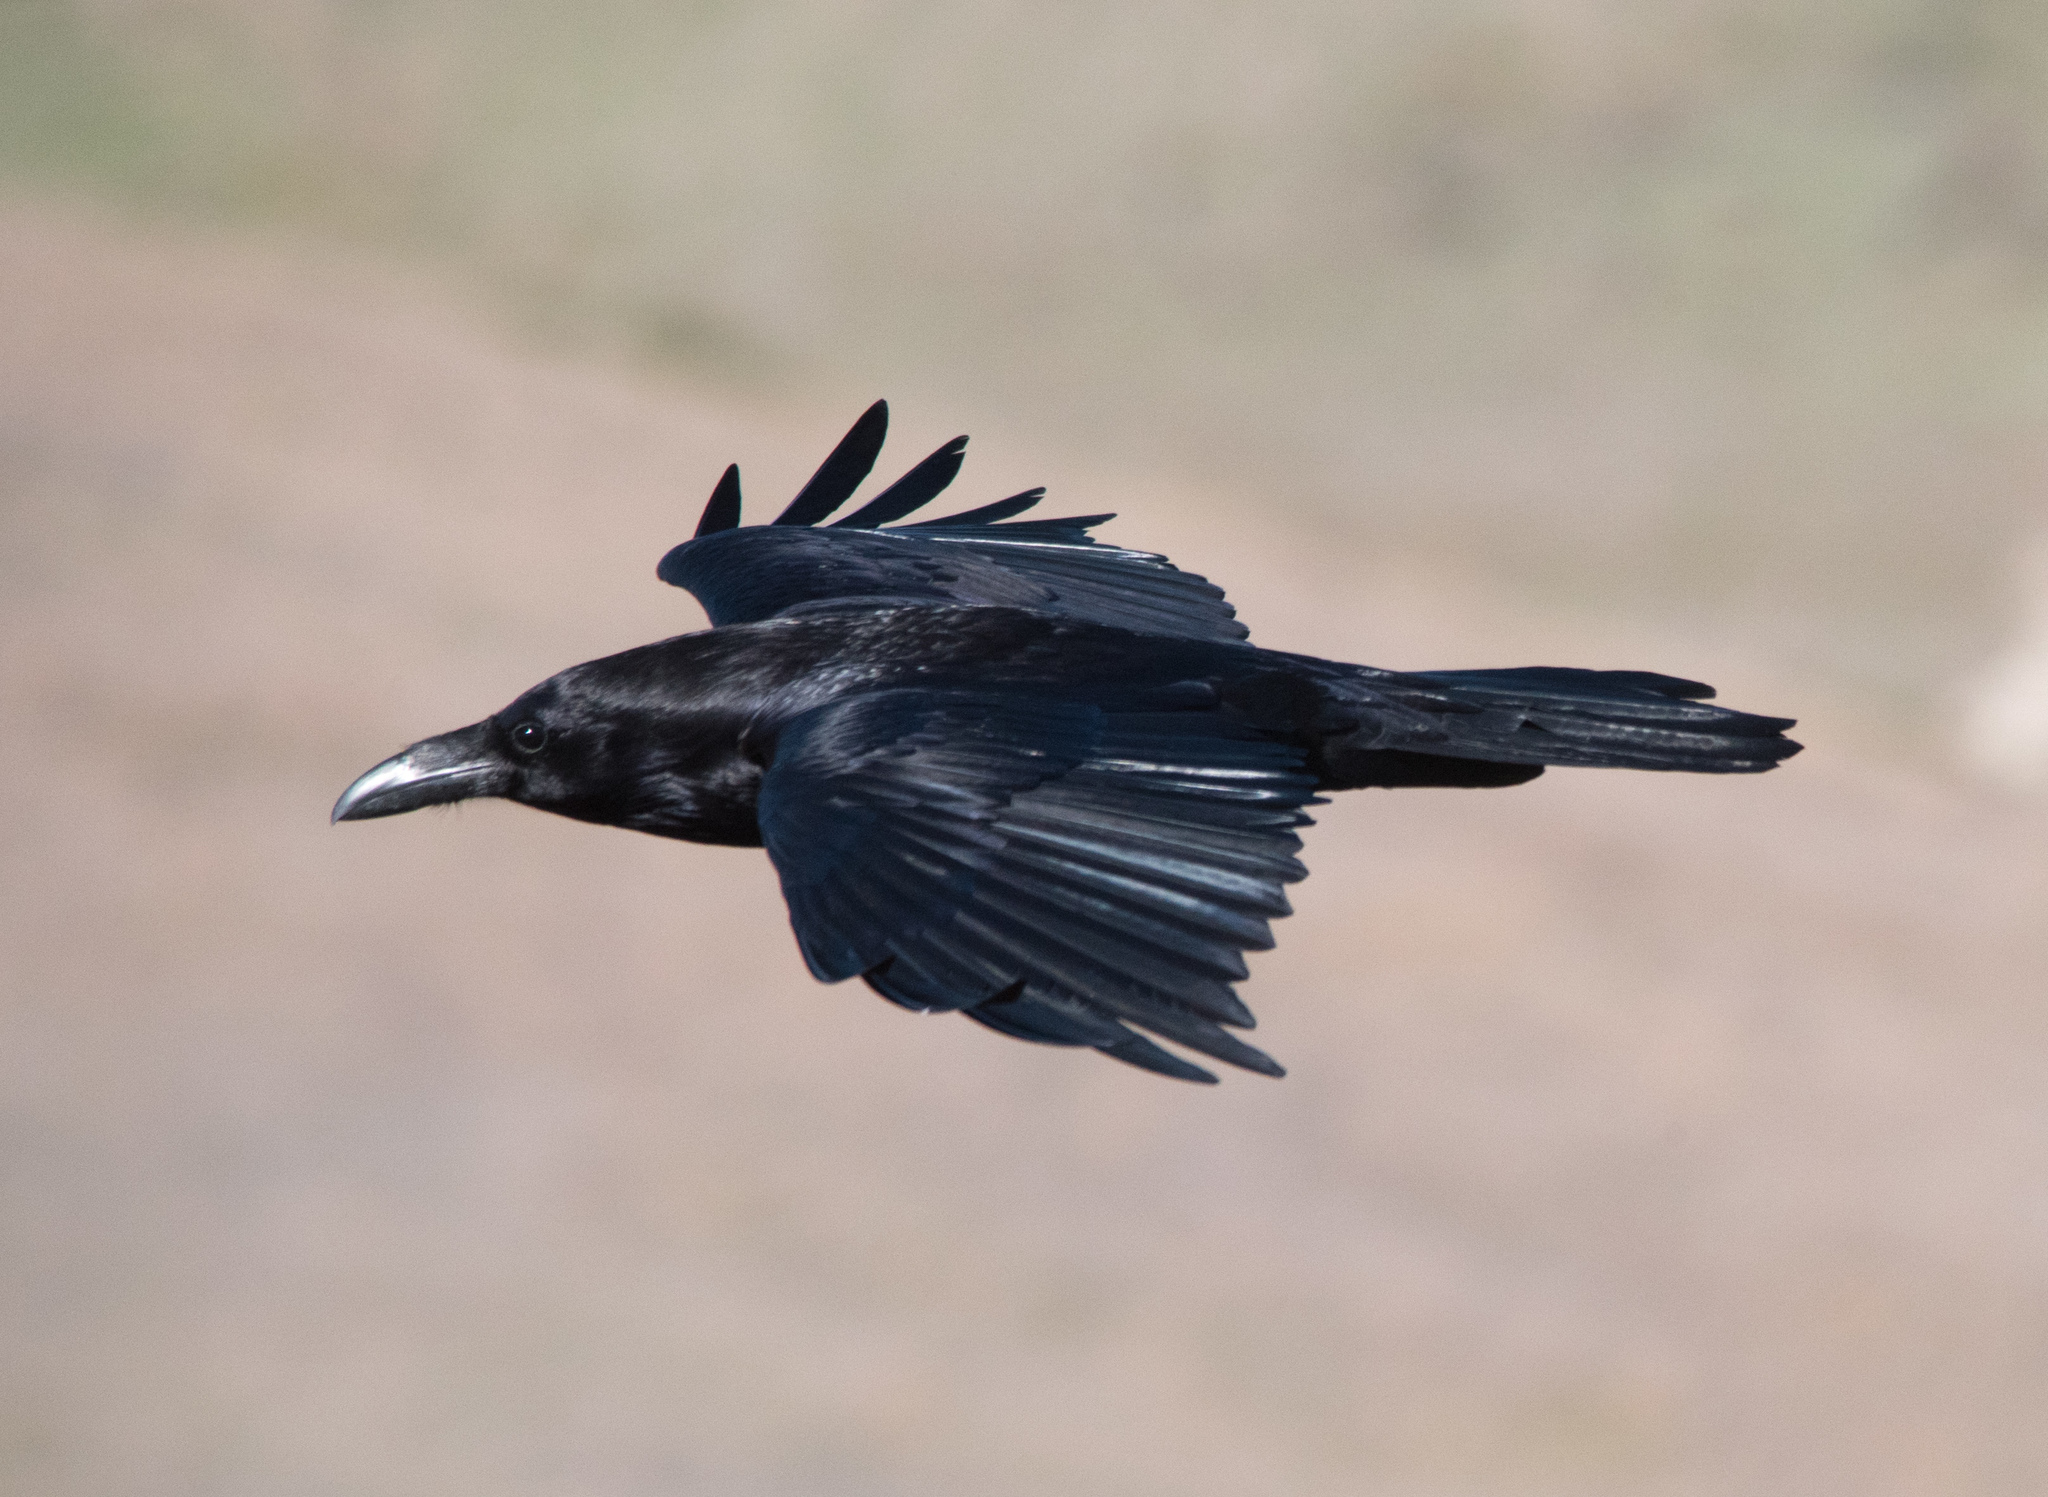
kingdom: Animalia
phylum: Chordata
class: Aves
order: Passeriformes
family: Corvidae
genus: Corvus
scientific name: Corvus corax
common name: Common raven
